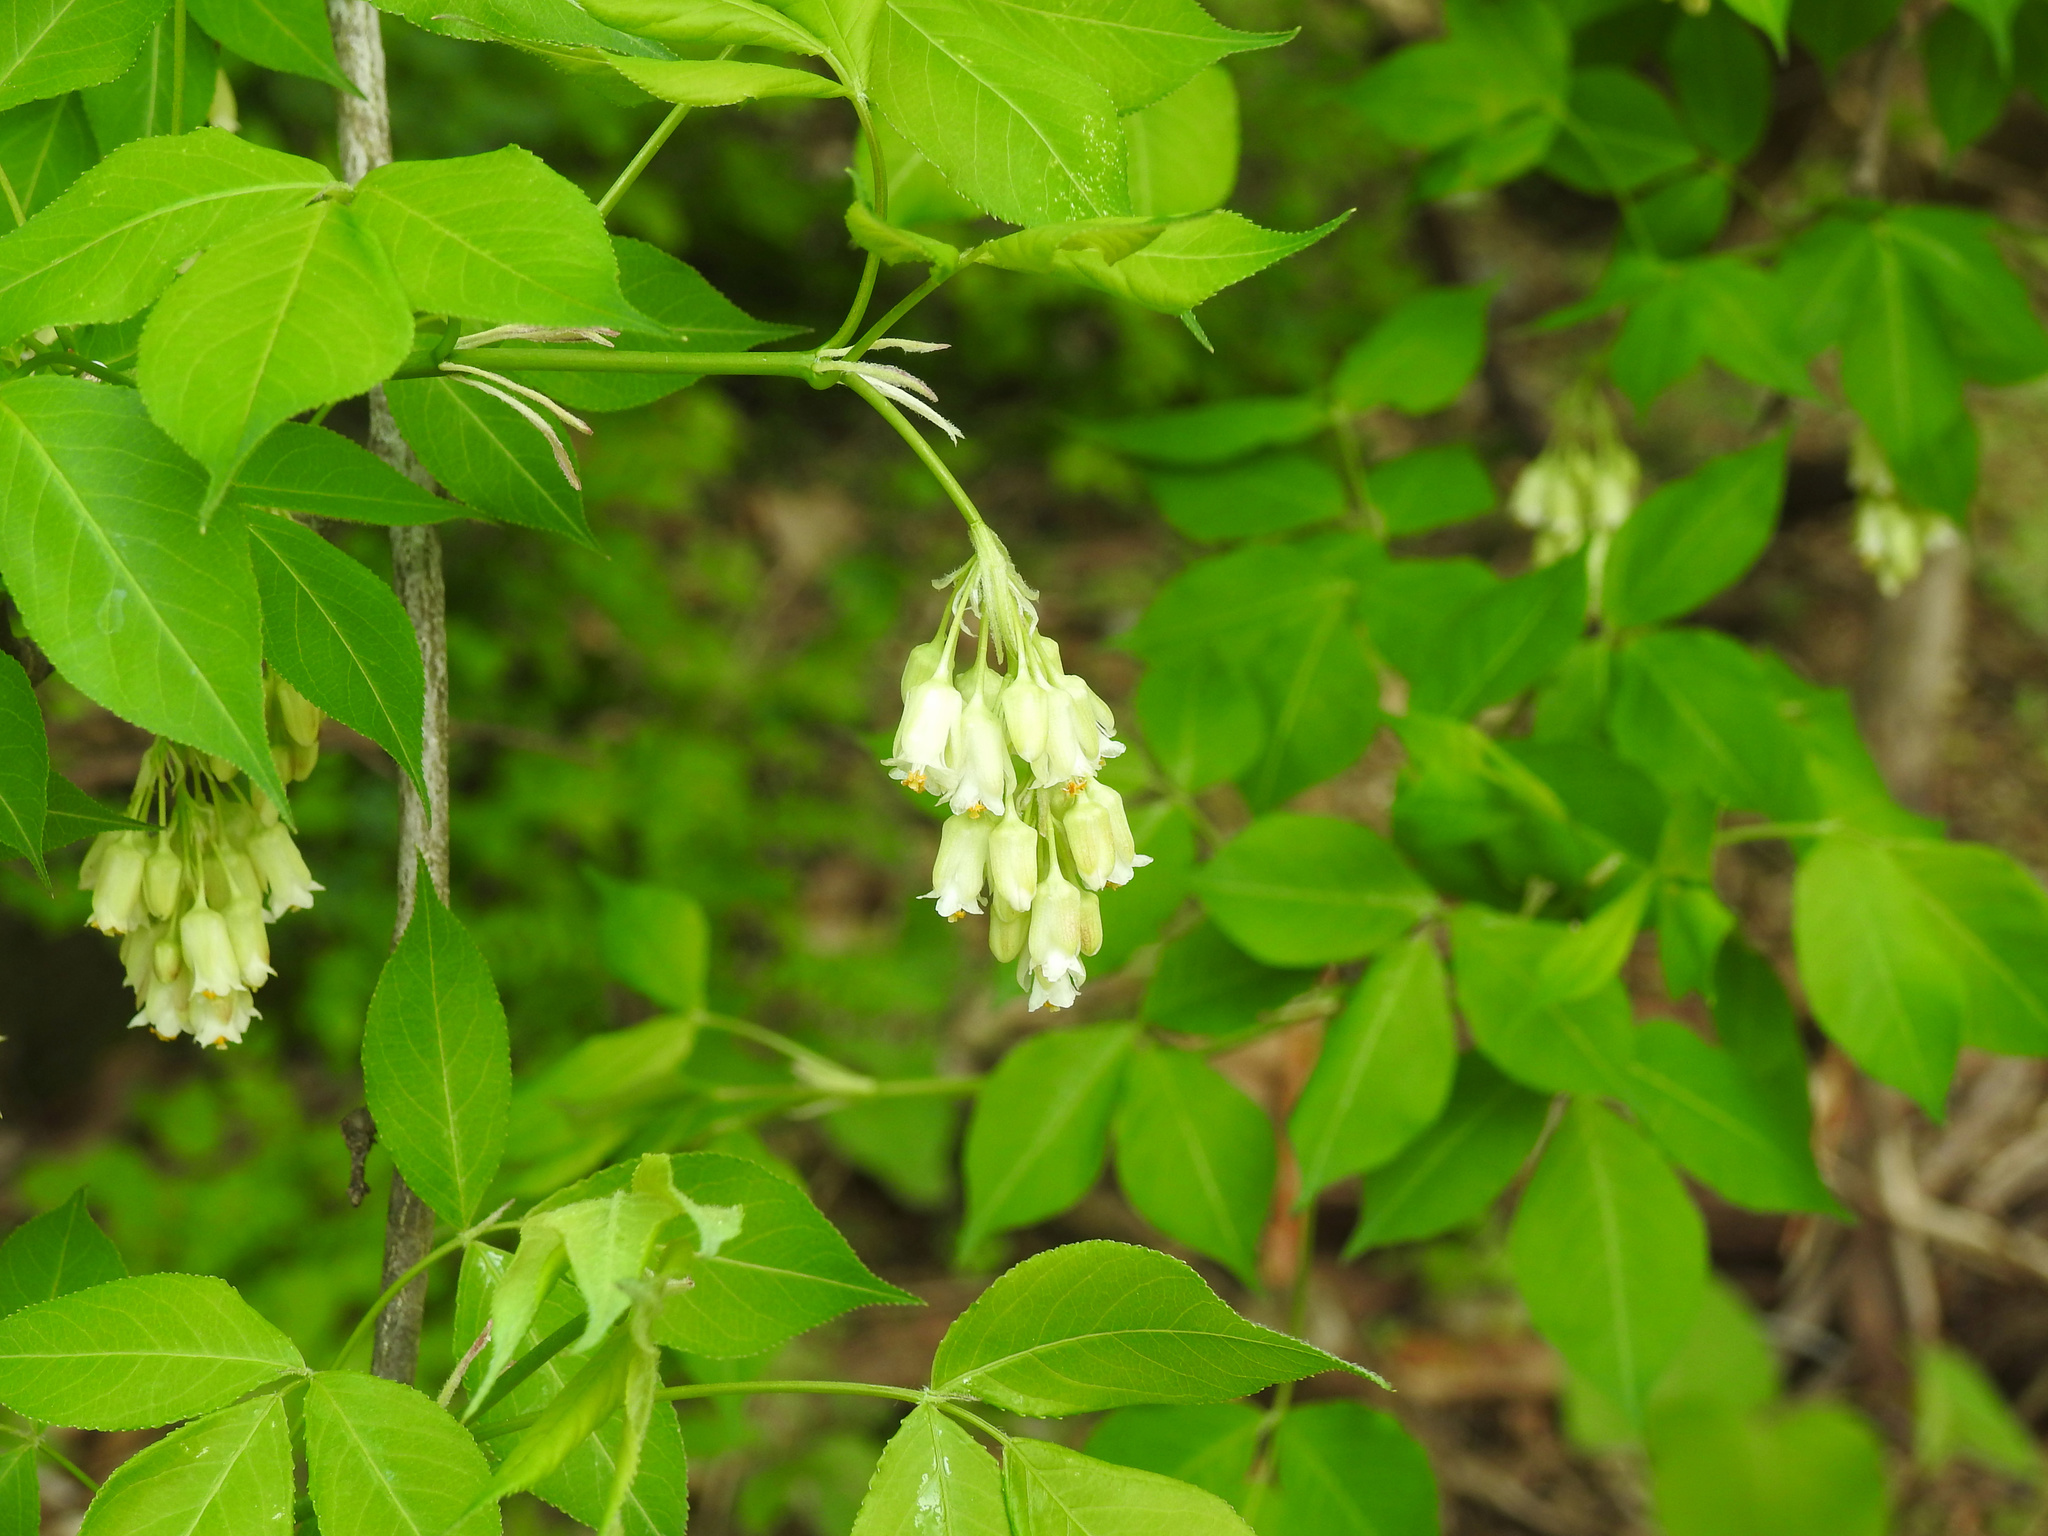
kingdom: Plantae
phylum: Tracheophyta
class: Magnoliopsida
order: Crossosomatales
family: Staphyleaceae
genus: Staphylea
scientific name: Staphylea trifolia
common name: American bladdernut
